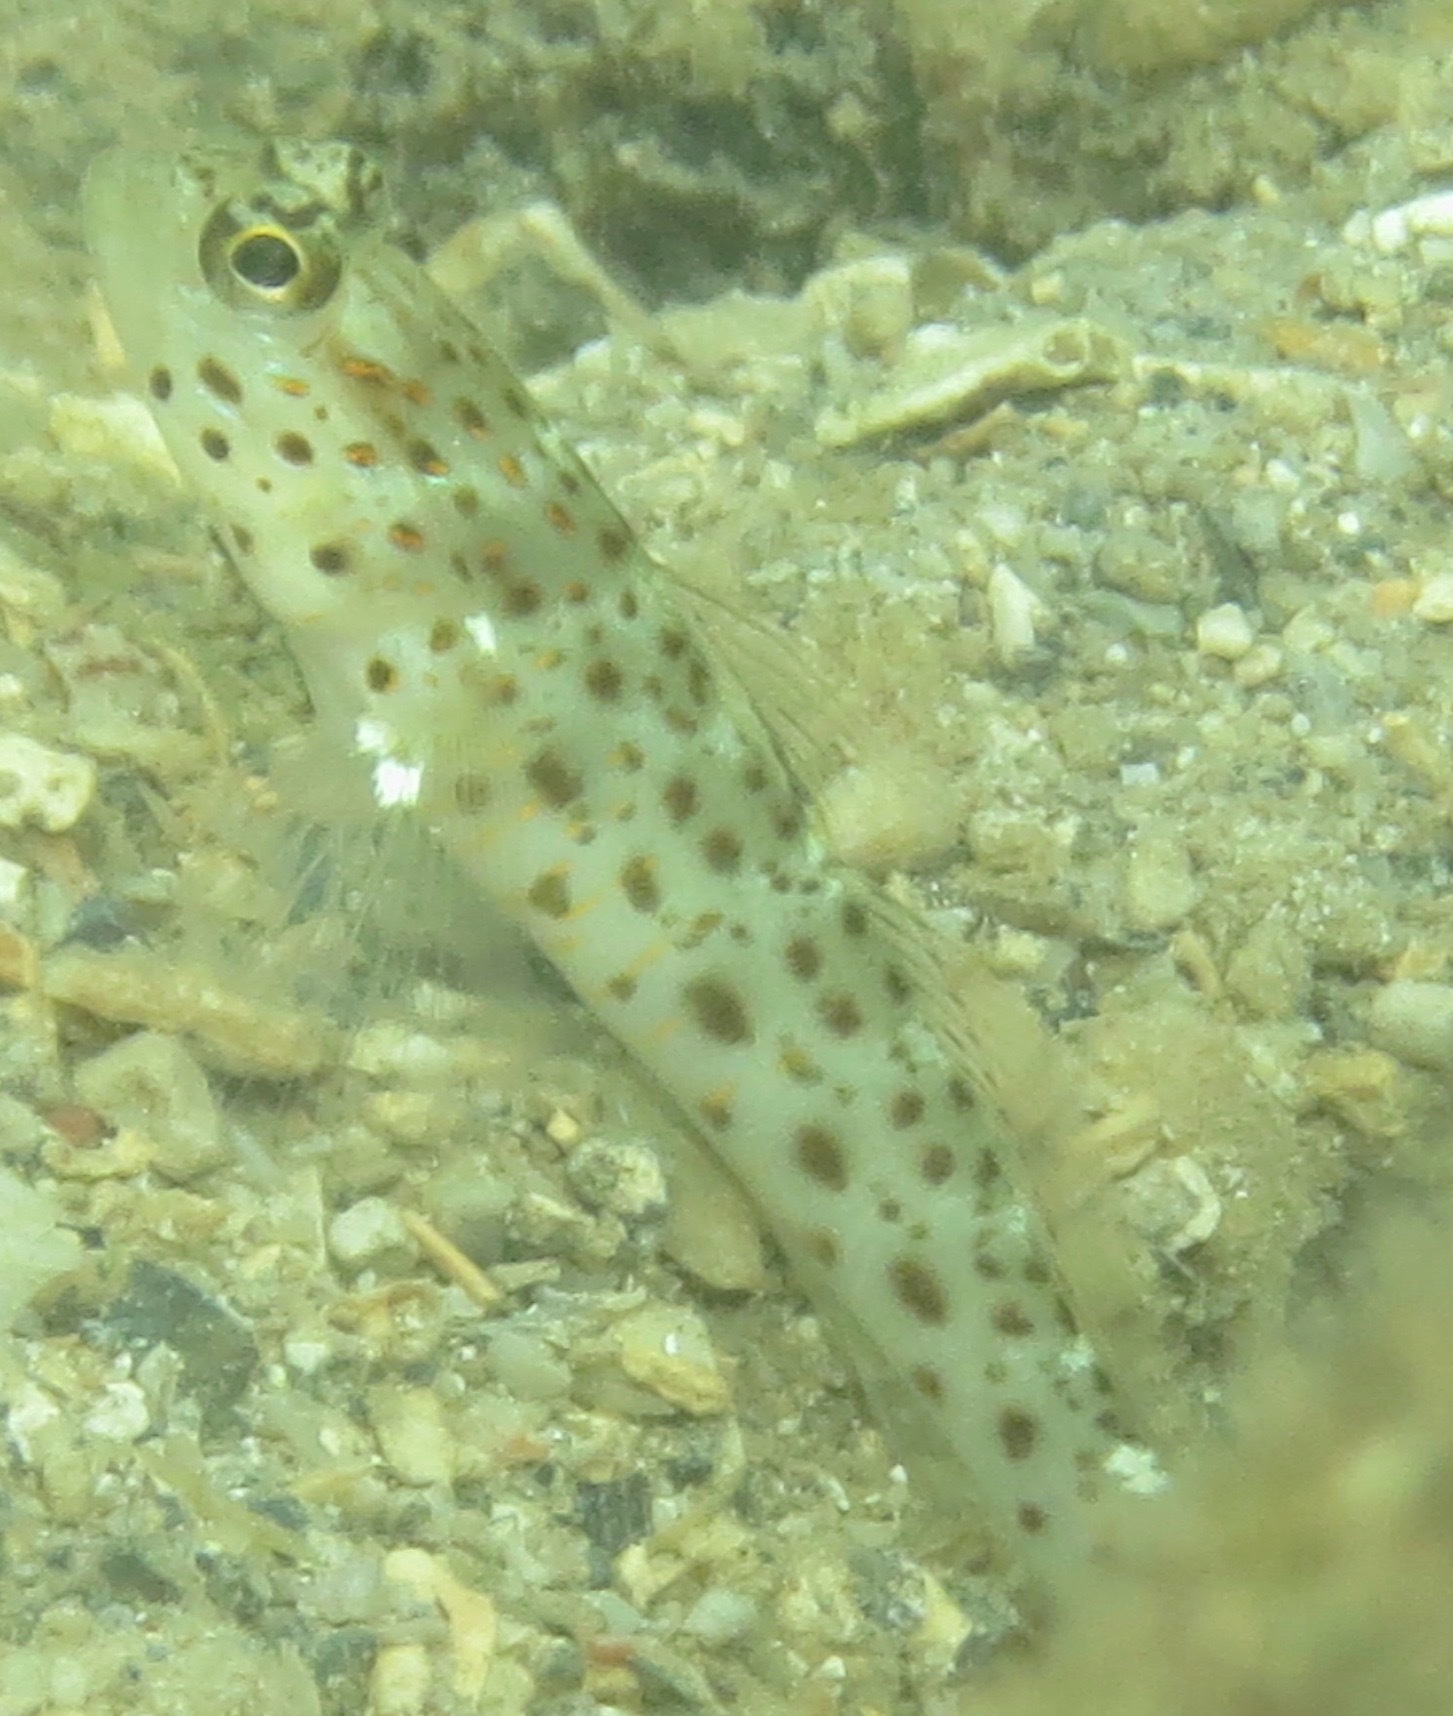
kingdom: Animalia
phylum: Chordata
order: Perciformes
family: Gobiidae
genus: Ctenogobiops
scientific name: Ctenogobiops aurocingulus
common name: Gold-streaked prawn-goby
